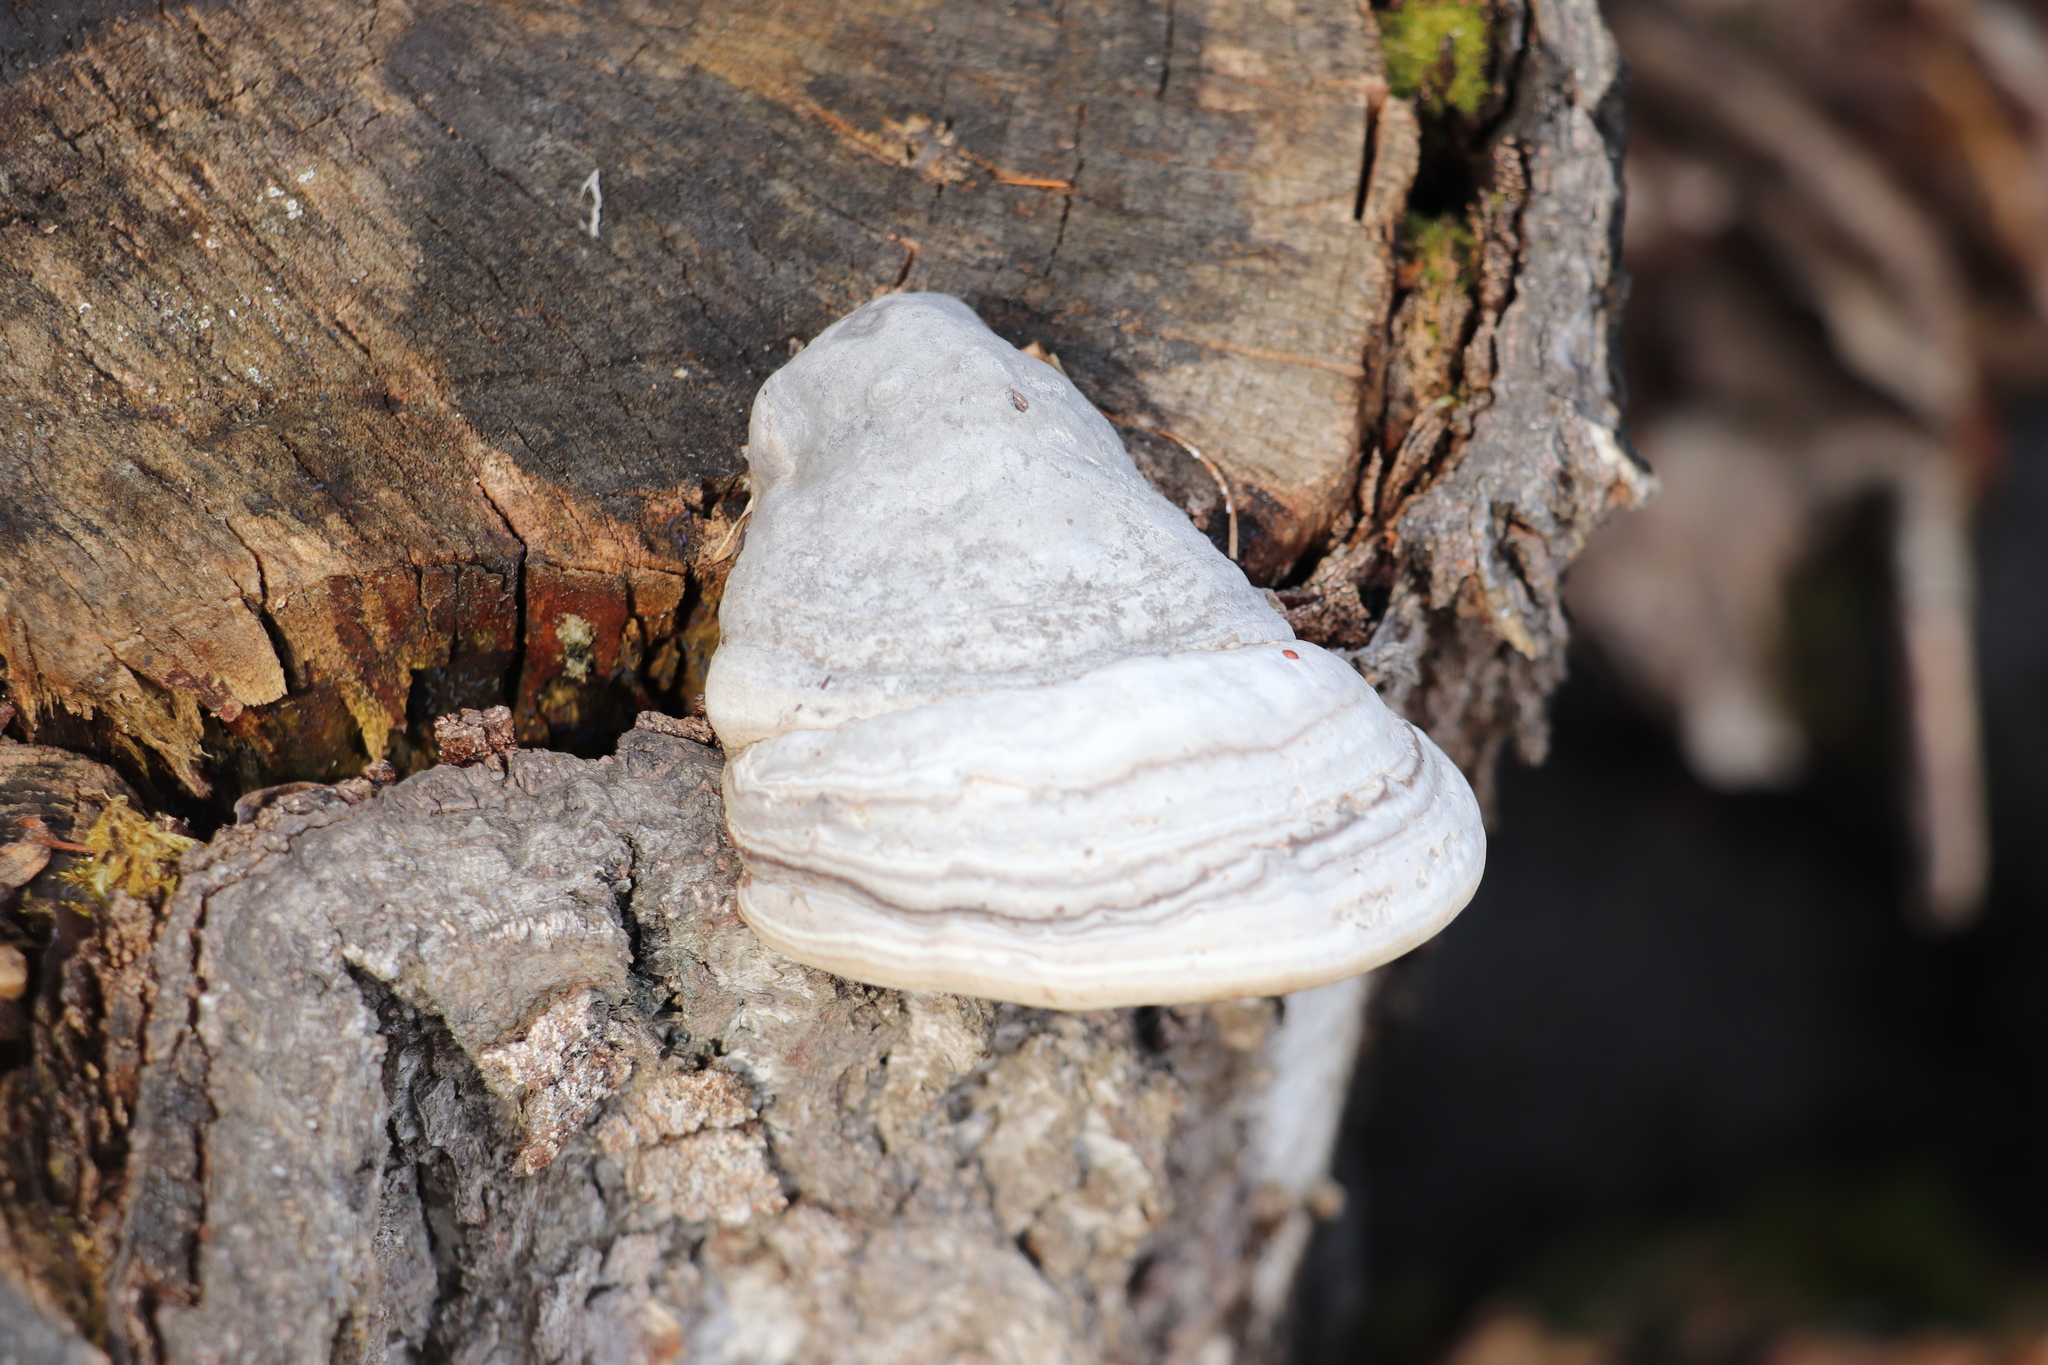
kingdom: Fungi
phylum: Basidiomycota
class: Agaricomycetes
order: Polyporales
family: Polyporaceae
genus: Fomes
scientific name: Fomes fomentarius
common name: Hoof fungus
